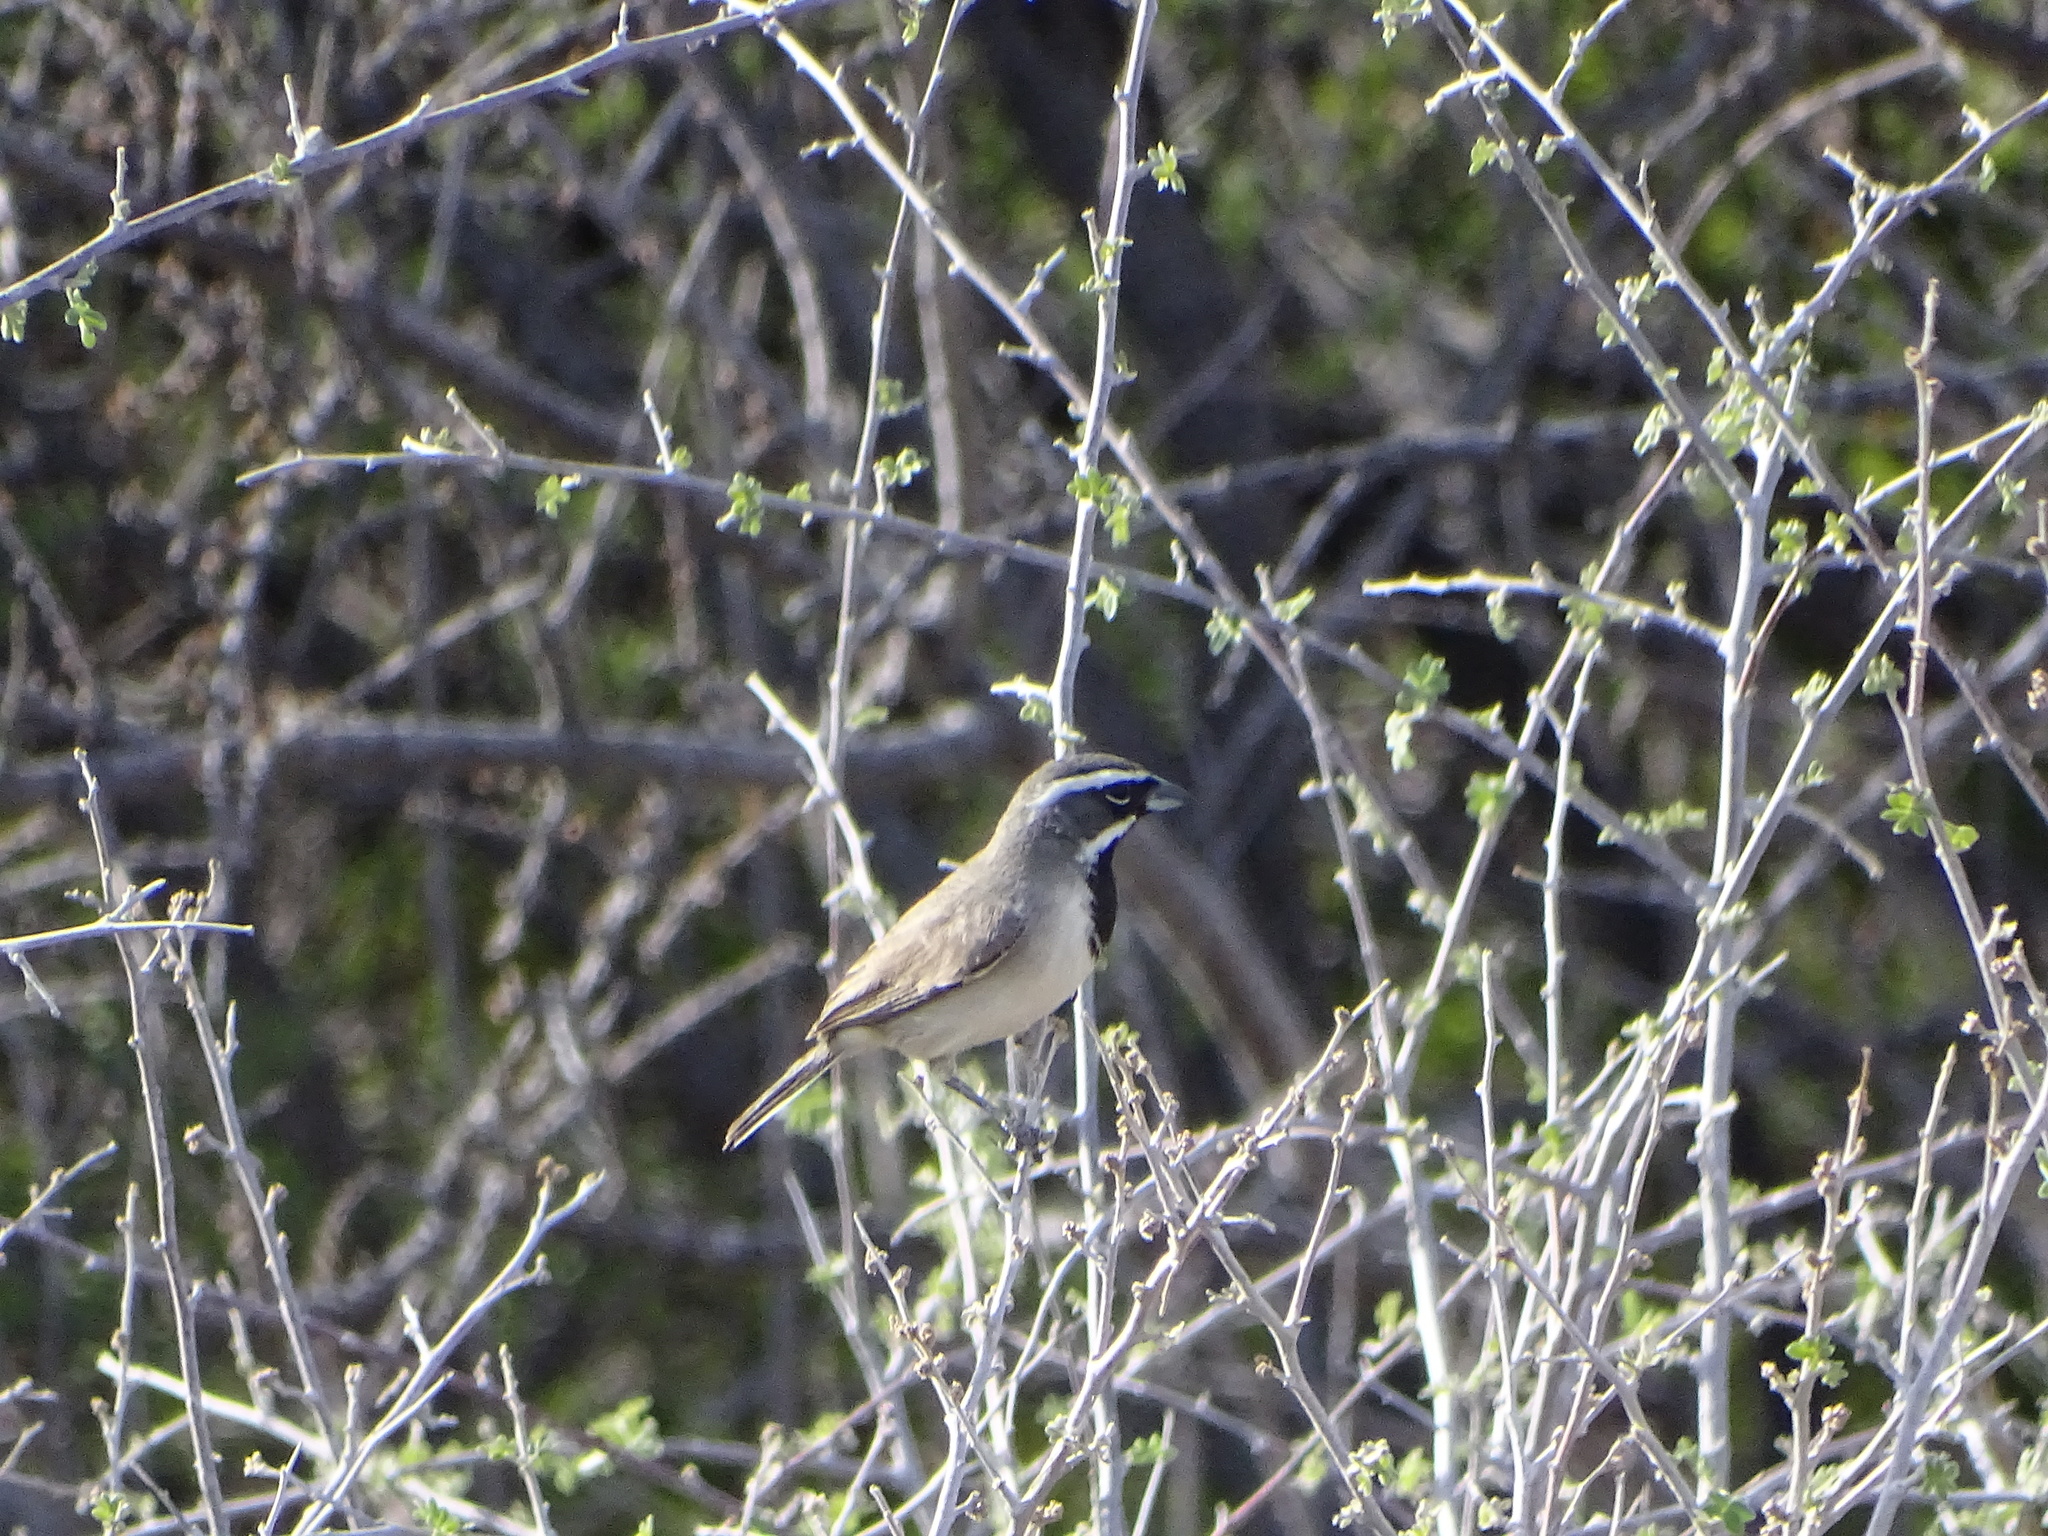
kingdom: Animalia
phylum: Chordata
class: Aves
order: Passeriformes
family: Passerellidae
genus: Amphispiza
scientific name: Amphispiza bilineata
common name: Black-throated sparrow
